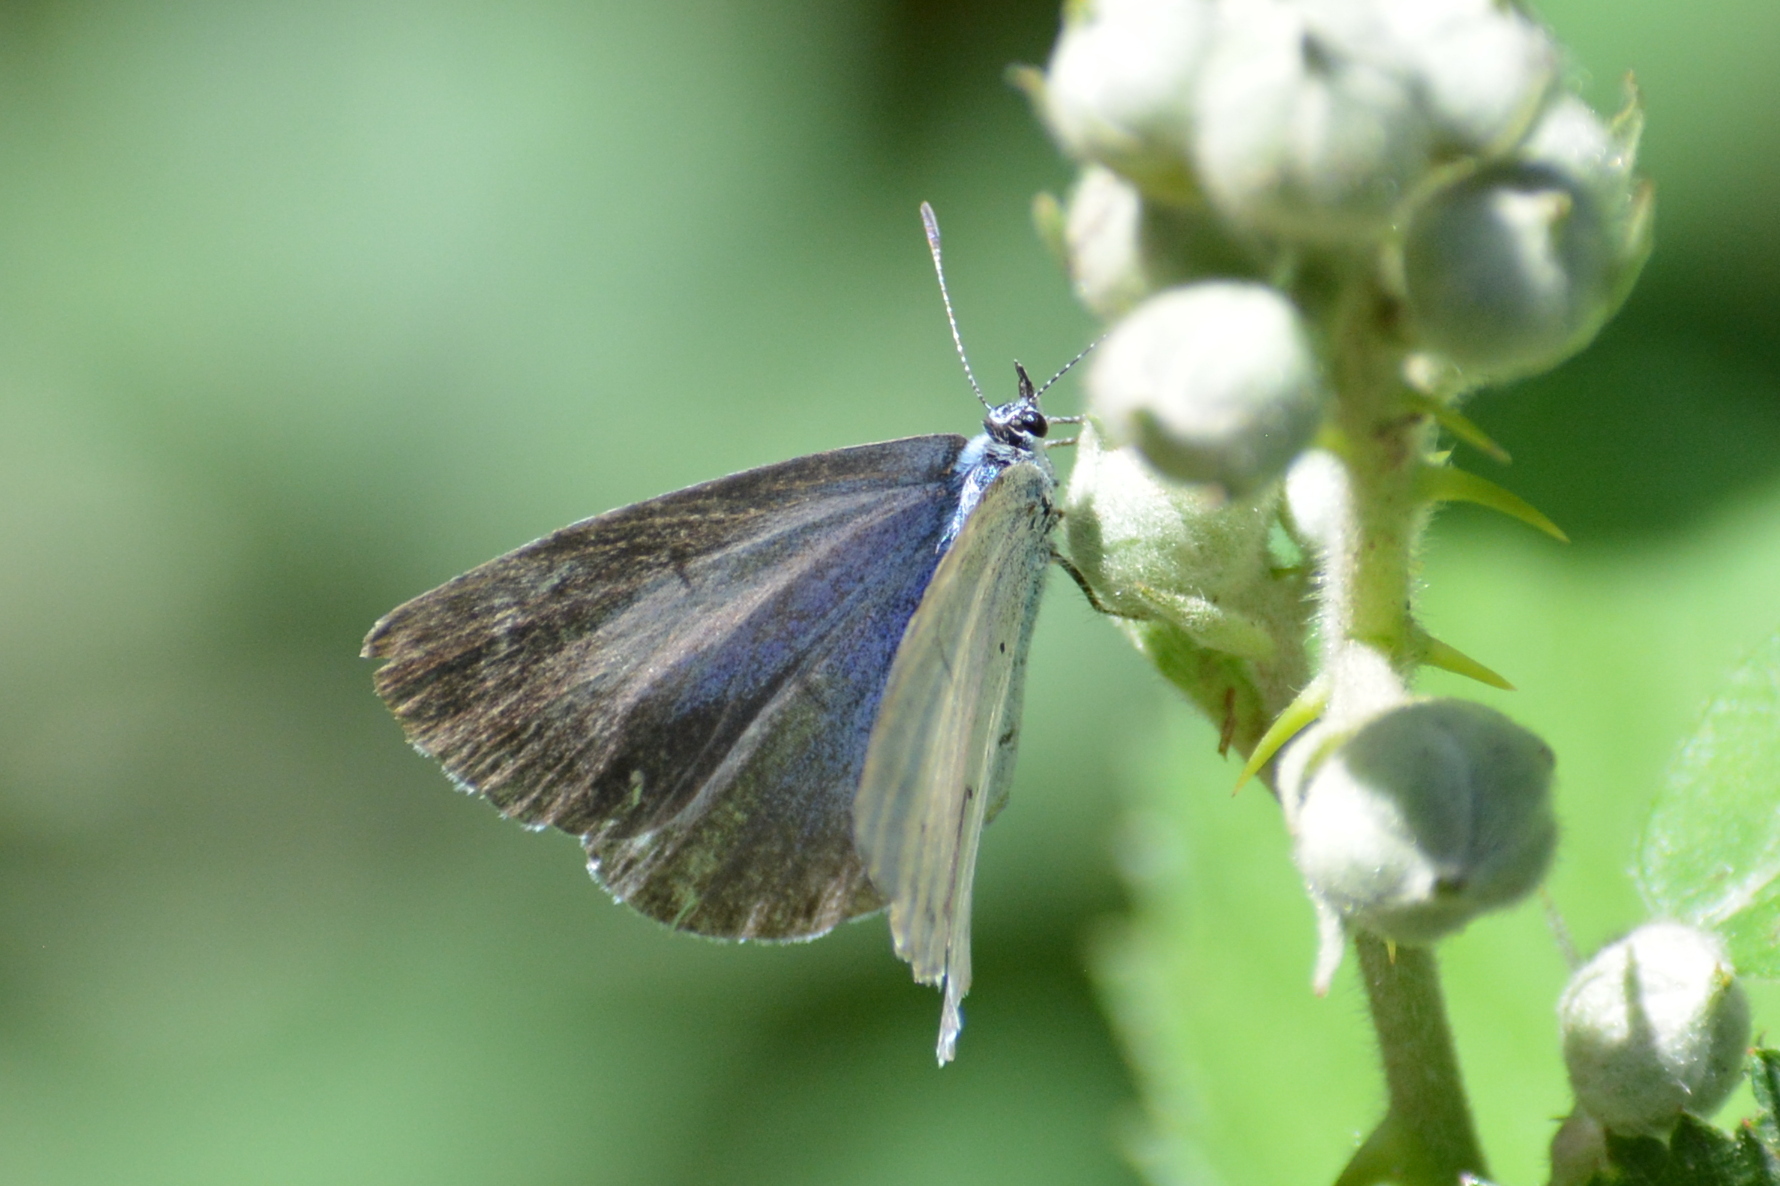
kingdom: Animalia
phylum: Arthropoda
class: Insecta
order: Lepidoptera
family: Lycaenidae
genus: Celastrina
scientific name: Celastrina argiolus
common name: Holly blue
